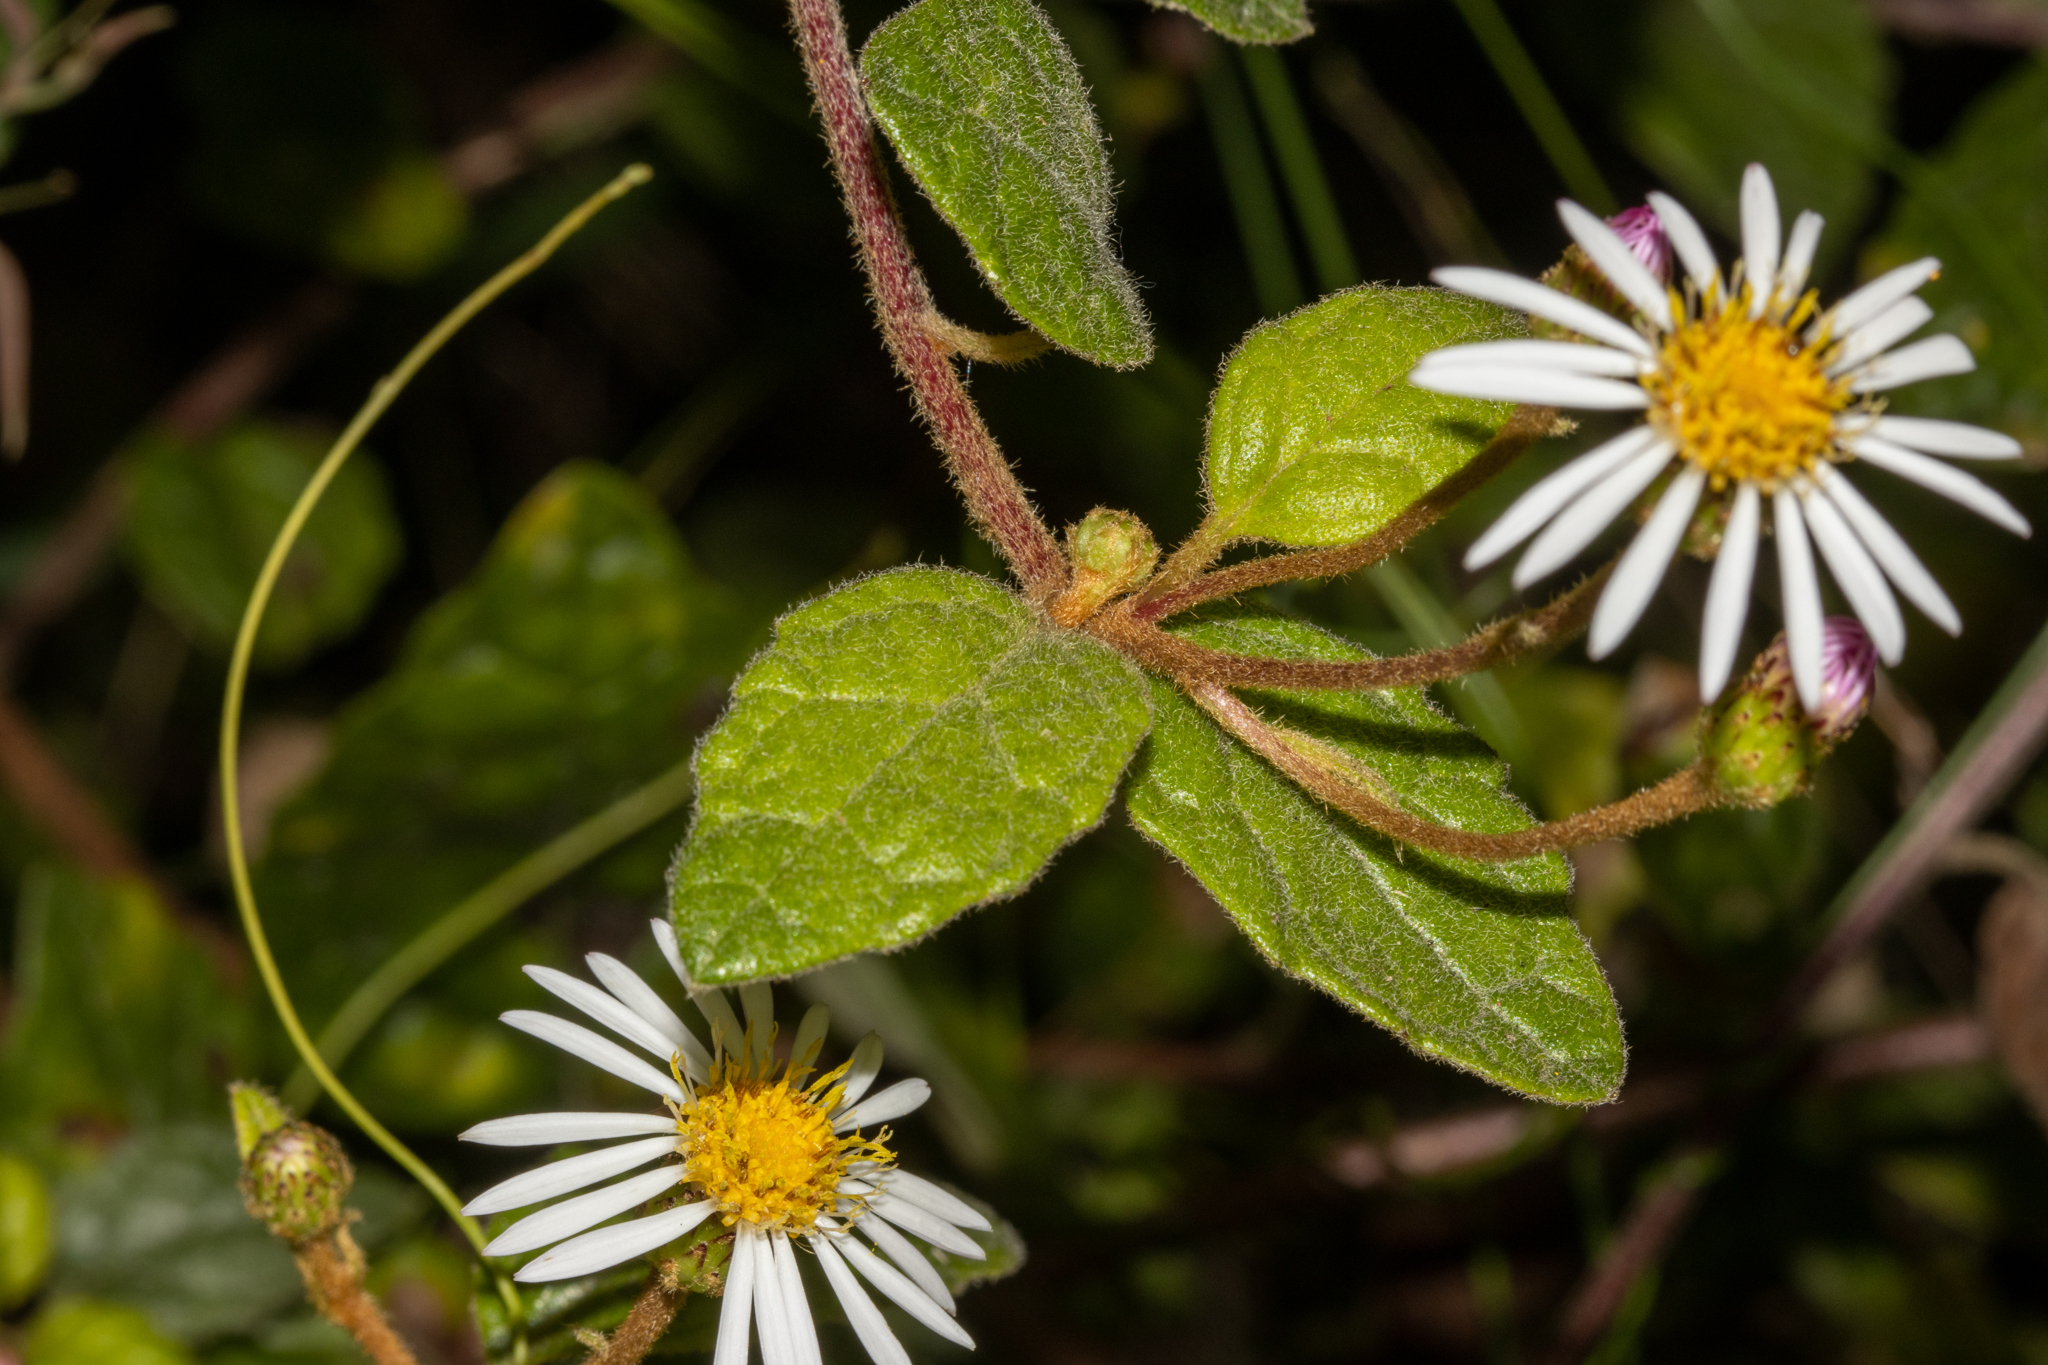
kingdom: Plantae
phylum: Tracheophyta
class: Magnoliopsida
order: Asterales
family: Asteraceae
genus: Olearia
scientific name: Olearia tomentosa
